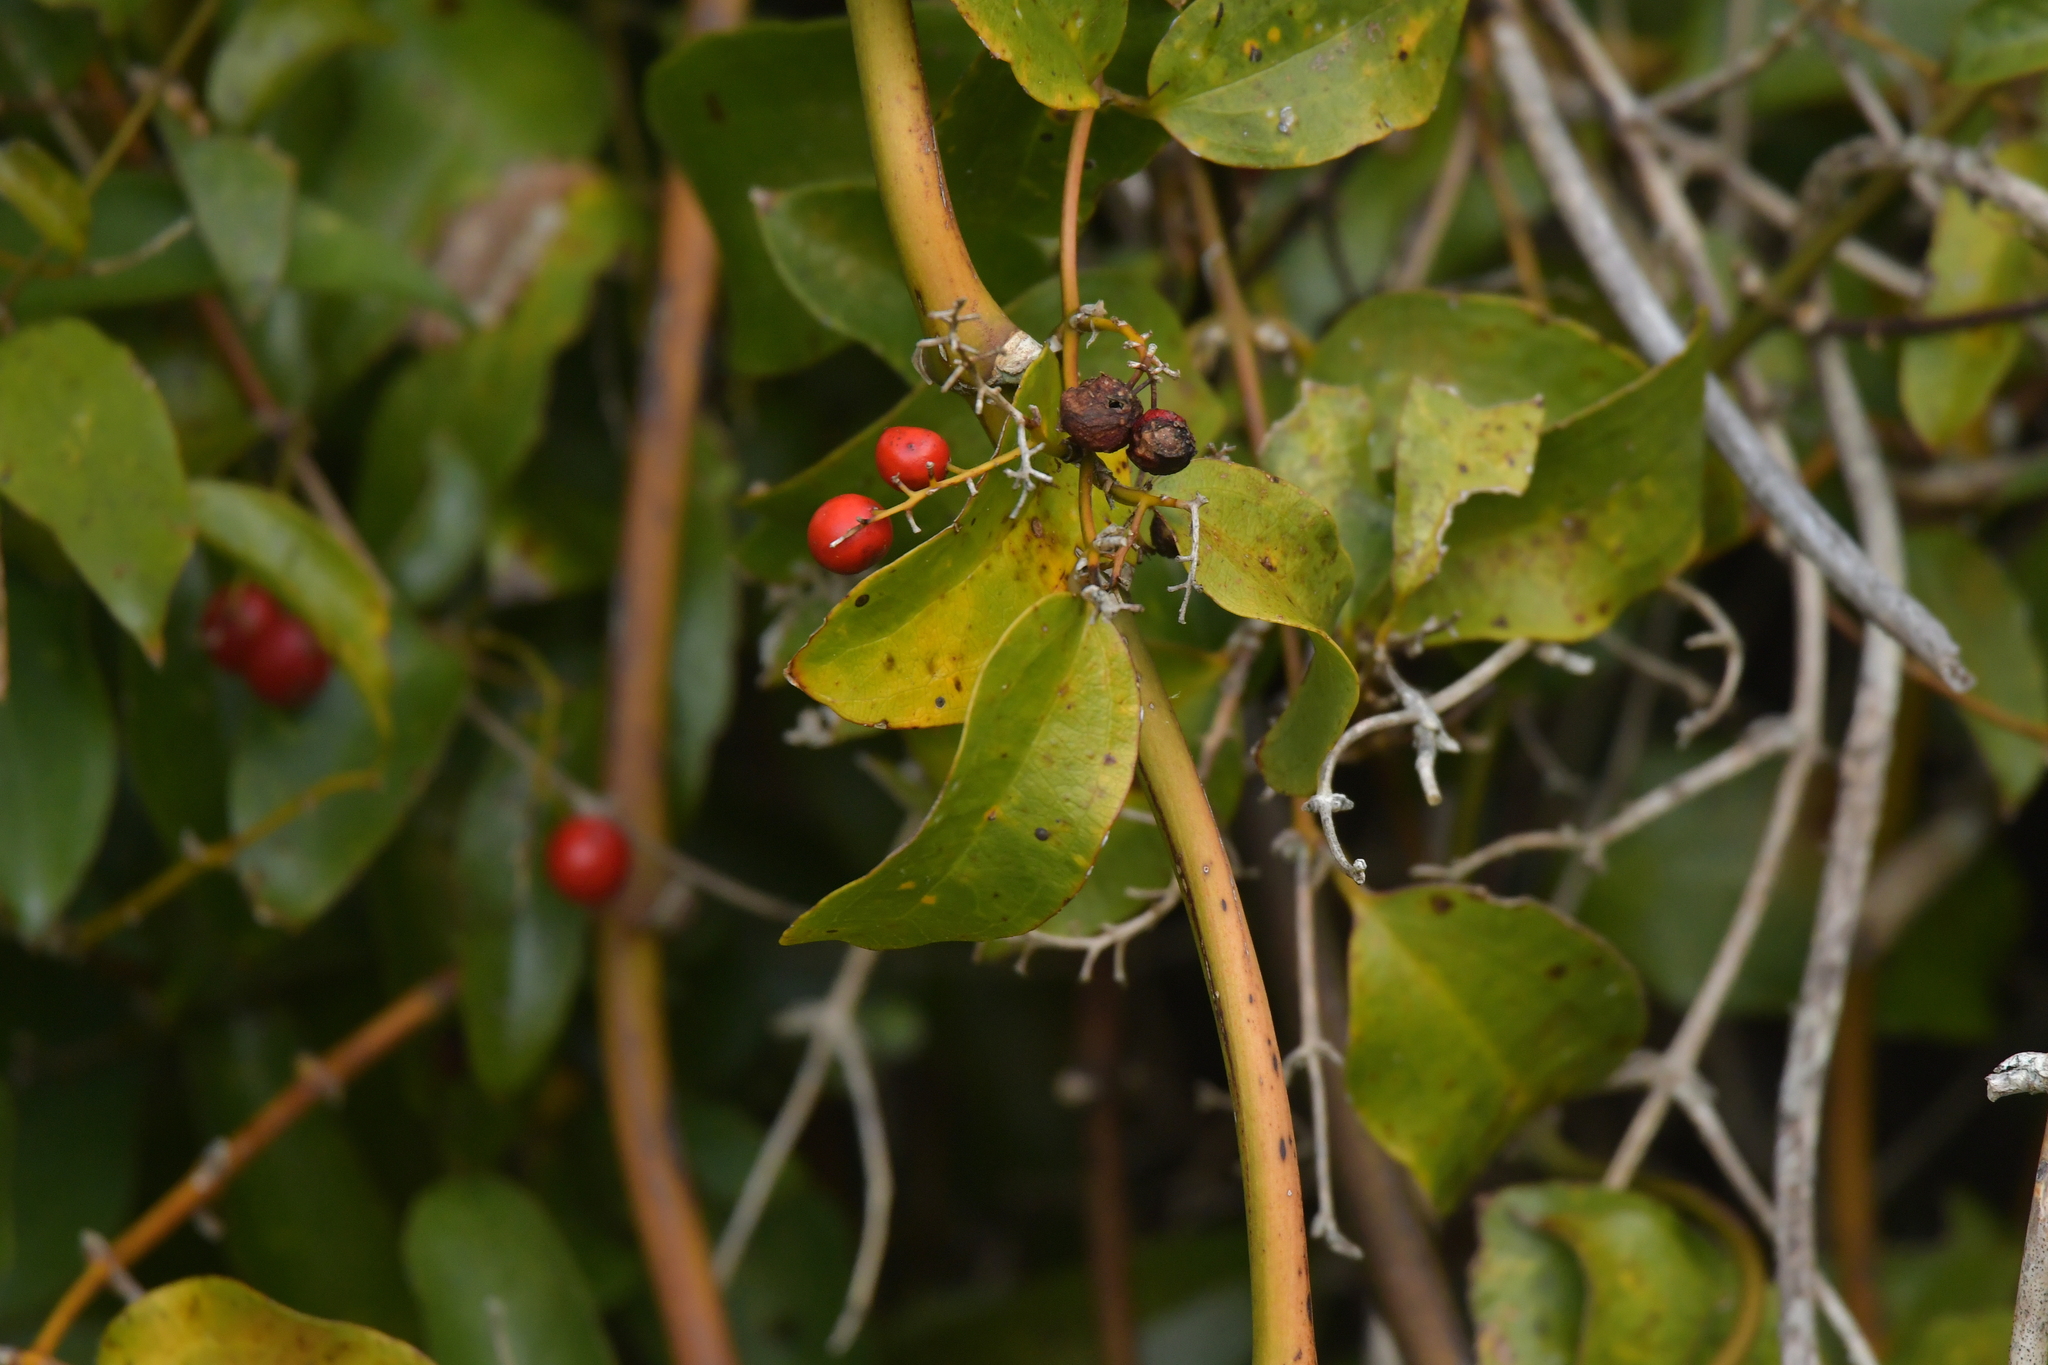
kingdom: Plantae
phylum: Tracheophyta
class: Liliopsida
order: Liliales
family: Ripogonaceae
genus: Ripogonum
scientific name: Ripogonum scandens
